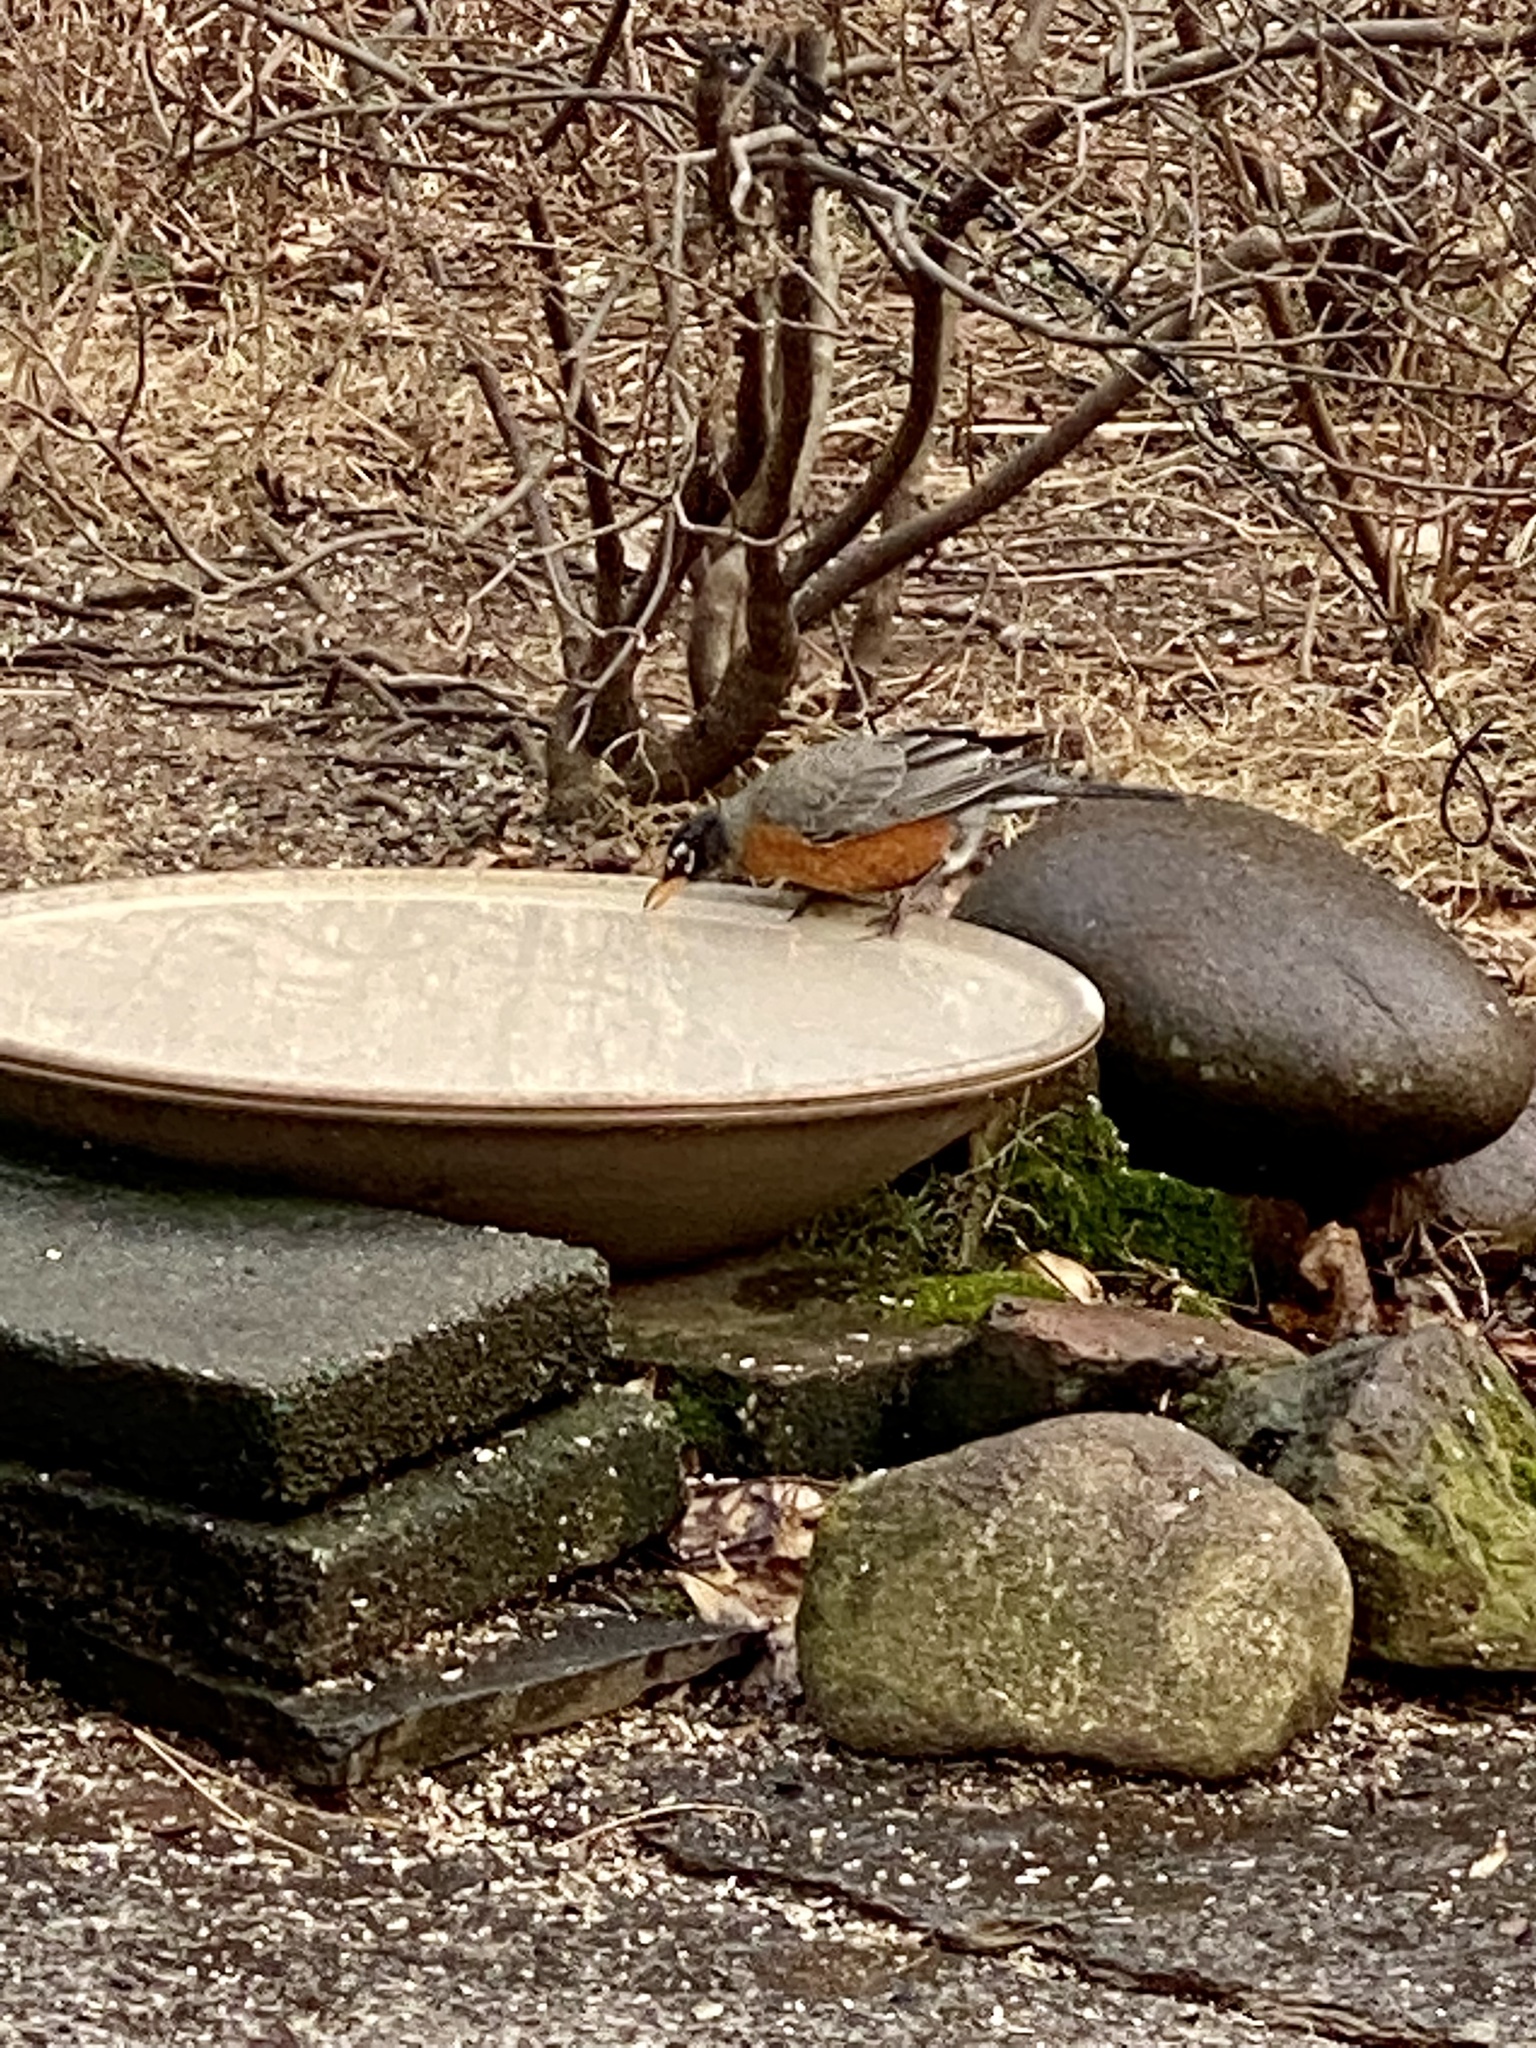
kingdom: Animalia
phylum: Chordata
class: Aves
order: Passeriformes
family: Turdidae
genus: Turdus
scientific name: Turdus migratorius
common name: American robin
